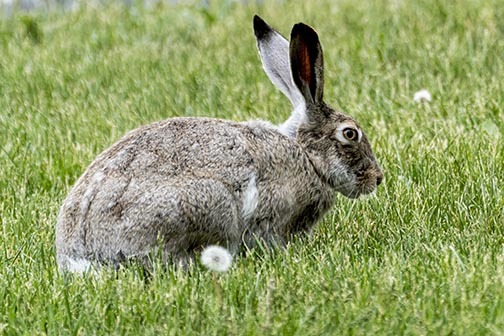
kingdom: Animalia
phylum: Chordata
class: Mammalia
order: Lagomorpha
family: Leporidae
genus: Lepus
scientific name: Lepus townsendii
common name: White-tailed jackrabbit
